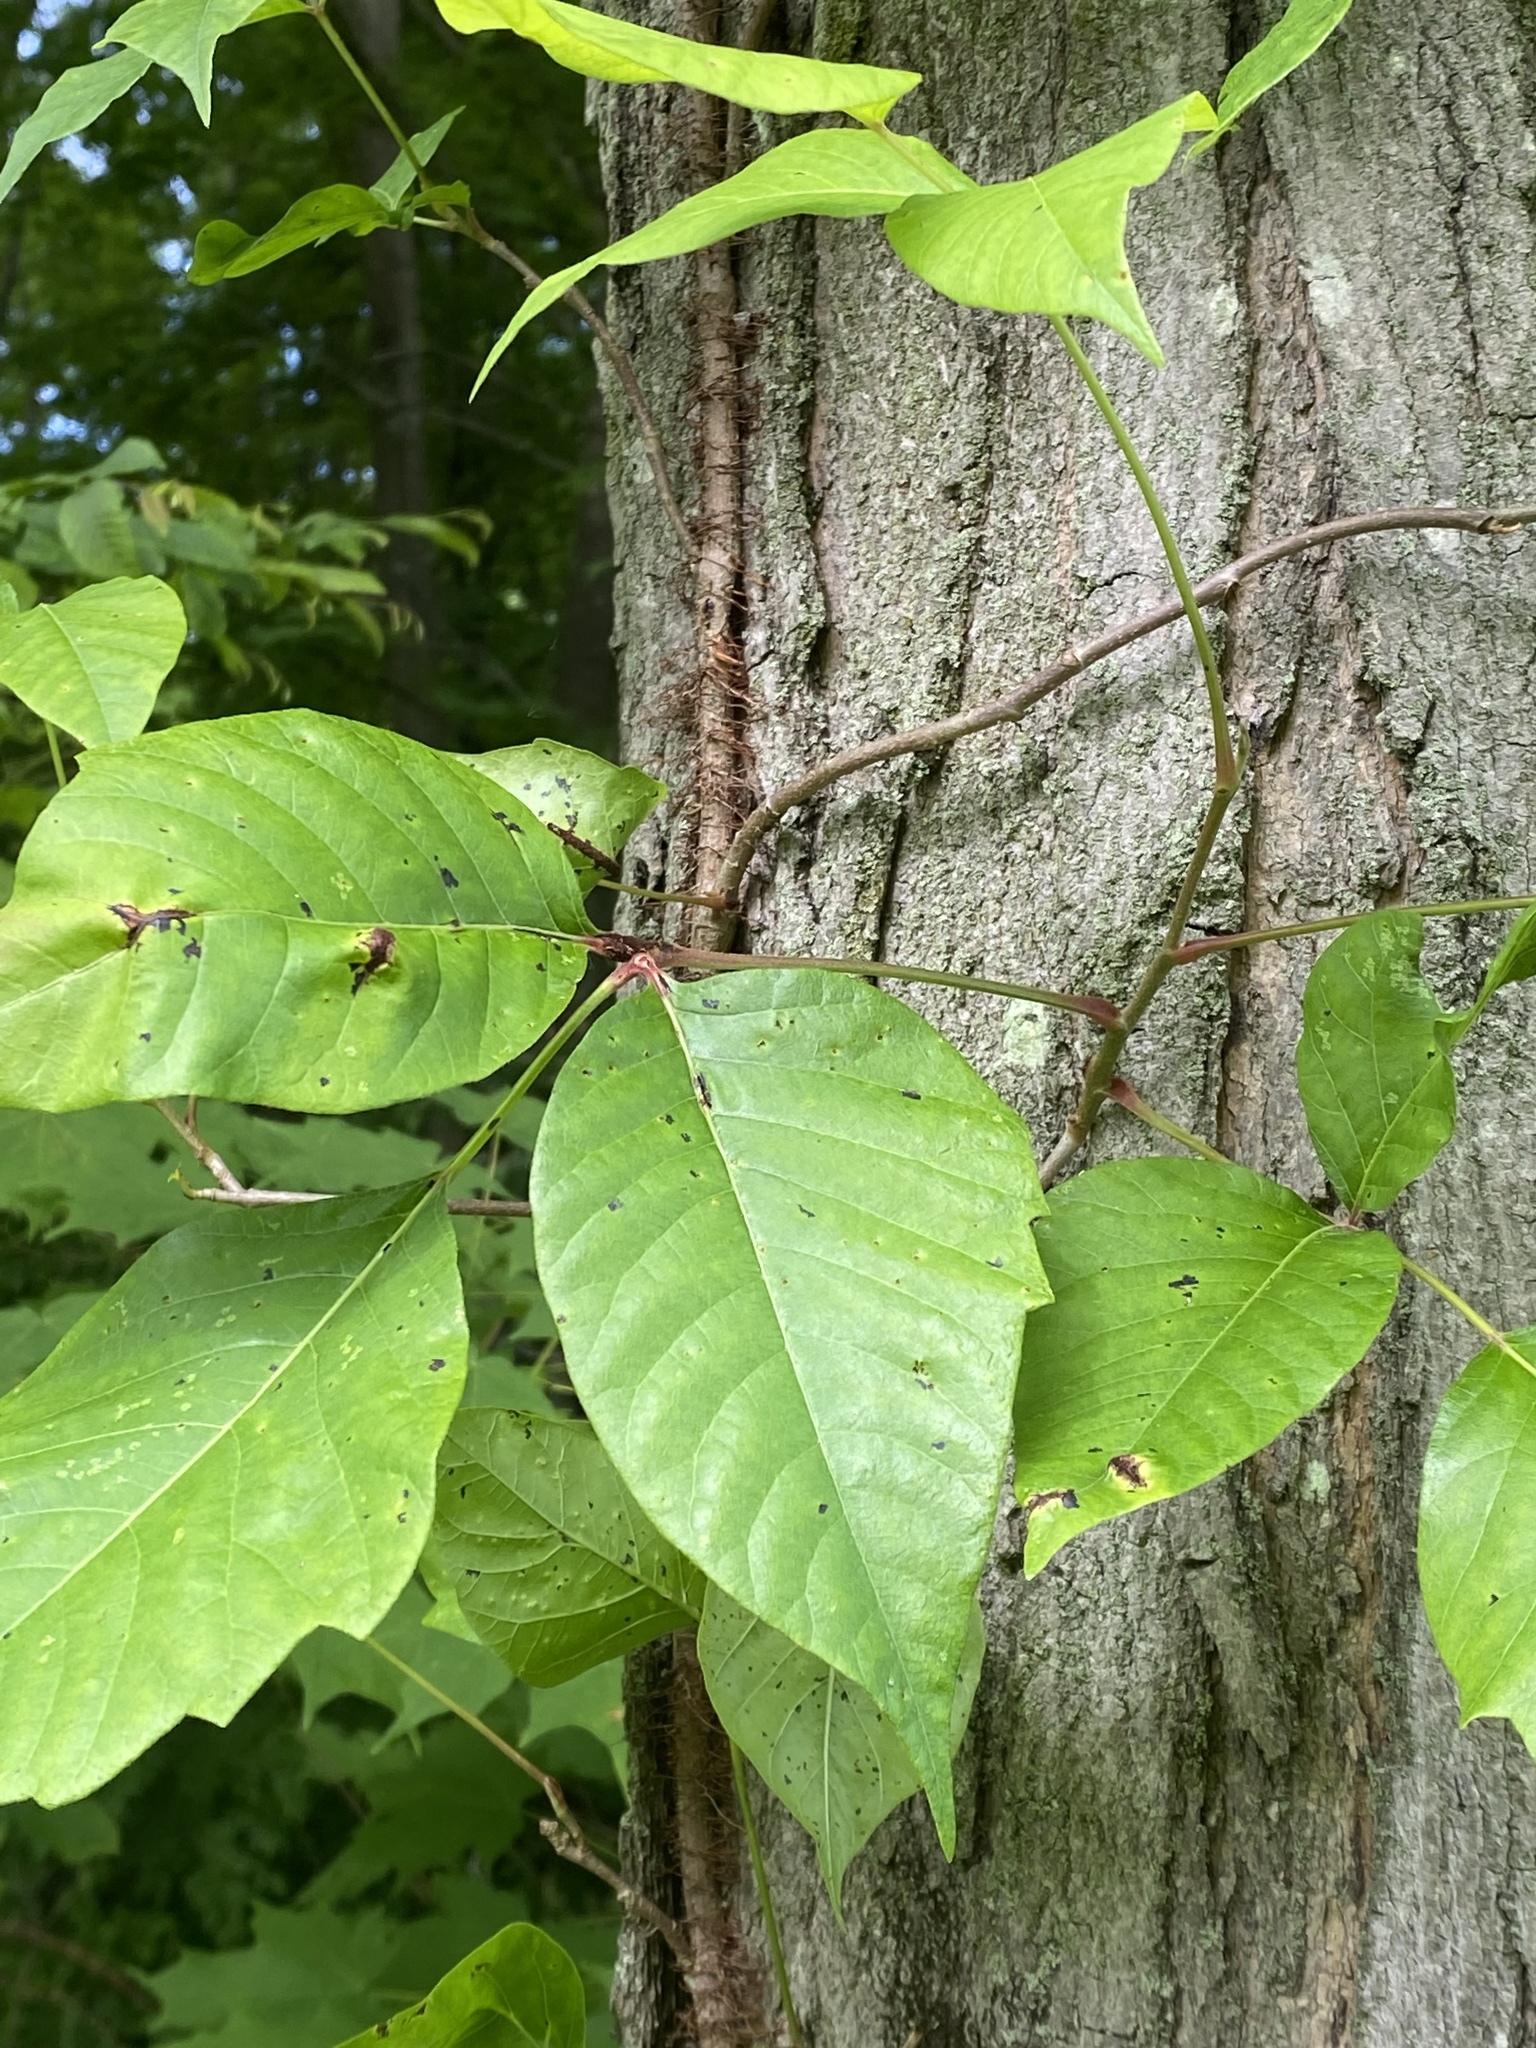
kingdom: Plantae
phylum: Tracheophyta
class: Magnoliopsida
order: Sapindales
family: Anacardiaceae
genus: Toxicodendron
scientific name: Toxicodendron radicans
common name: Poison ivy
